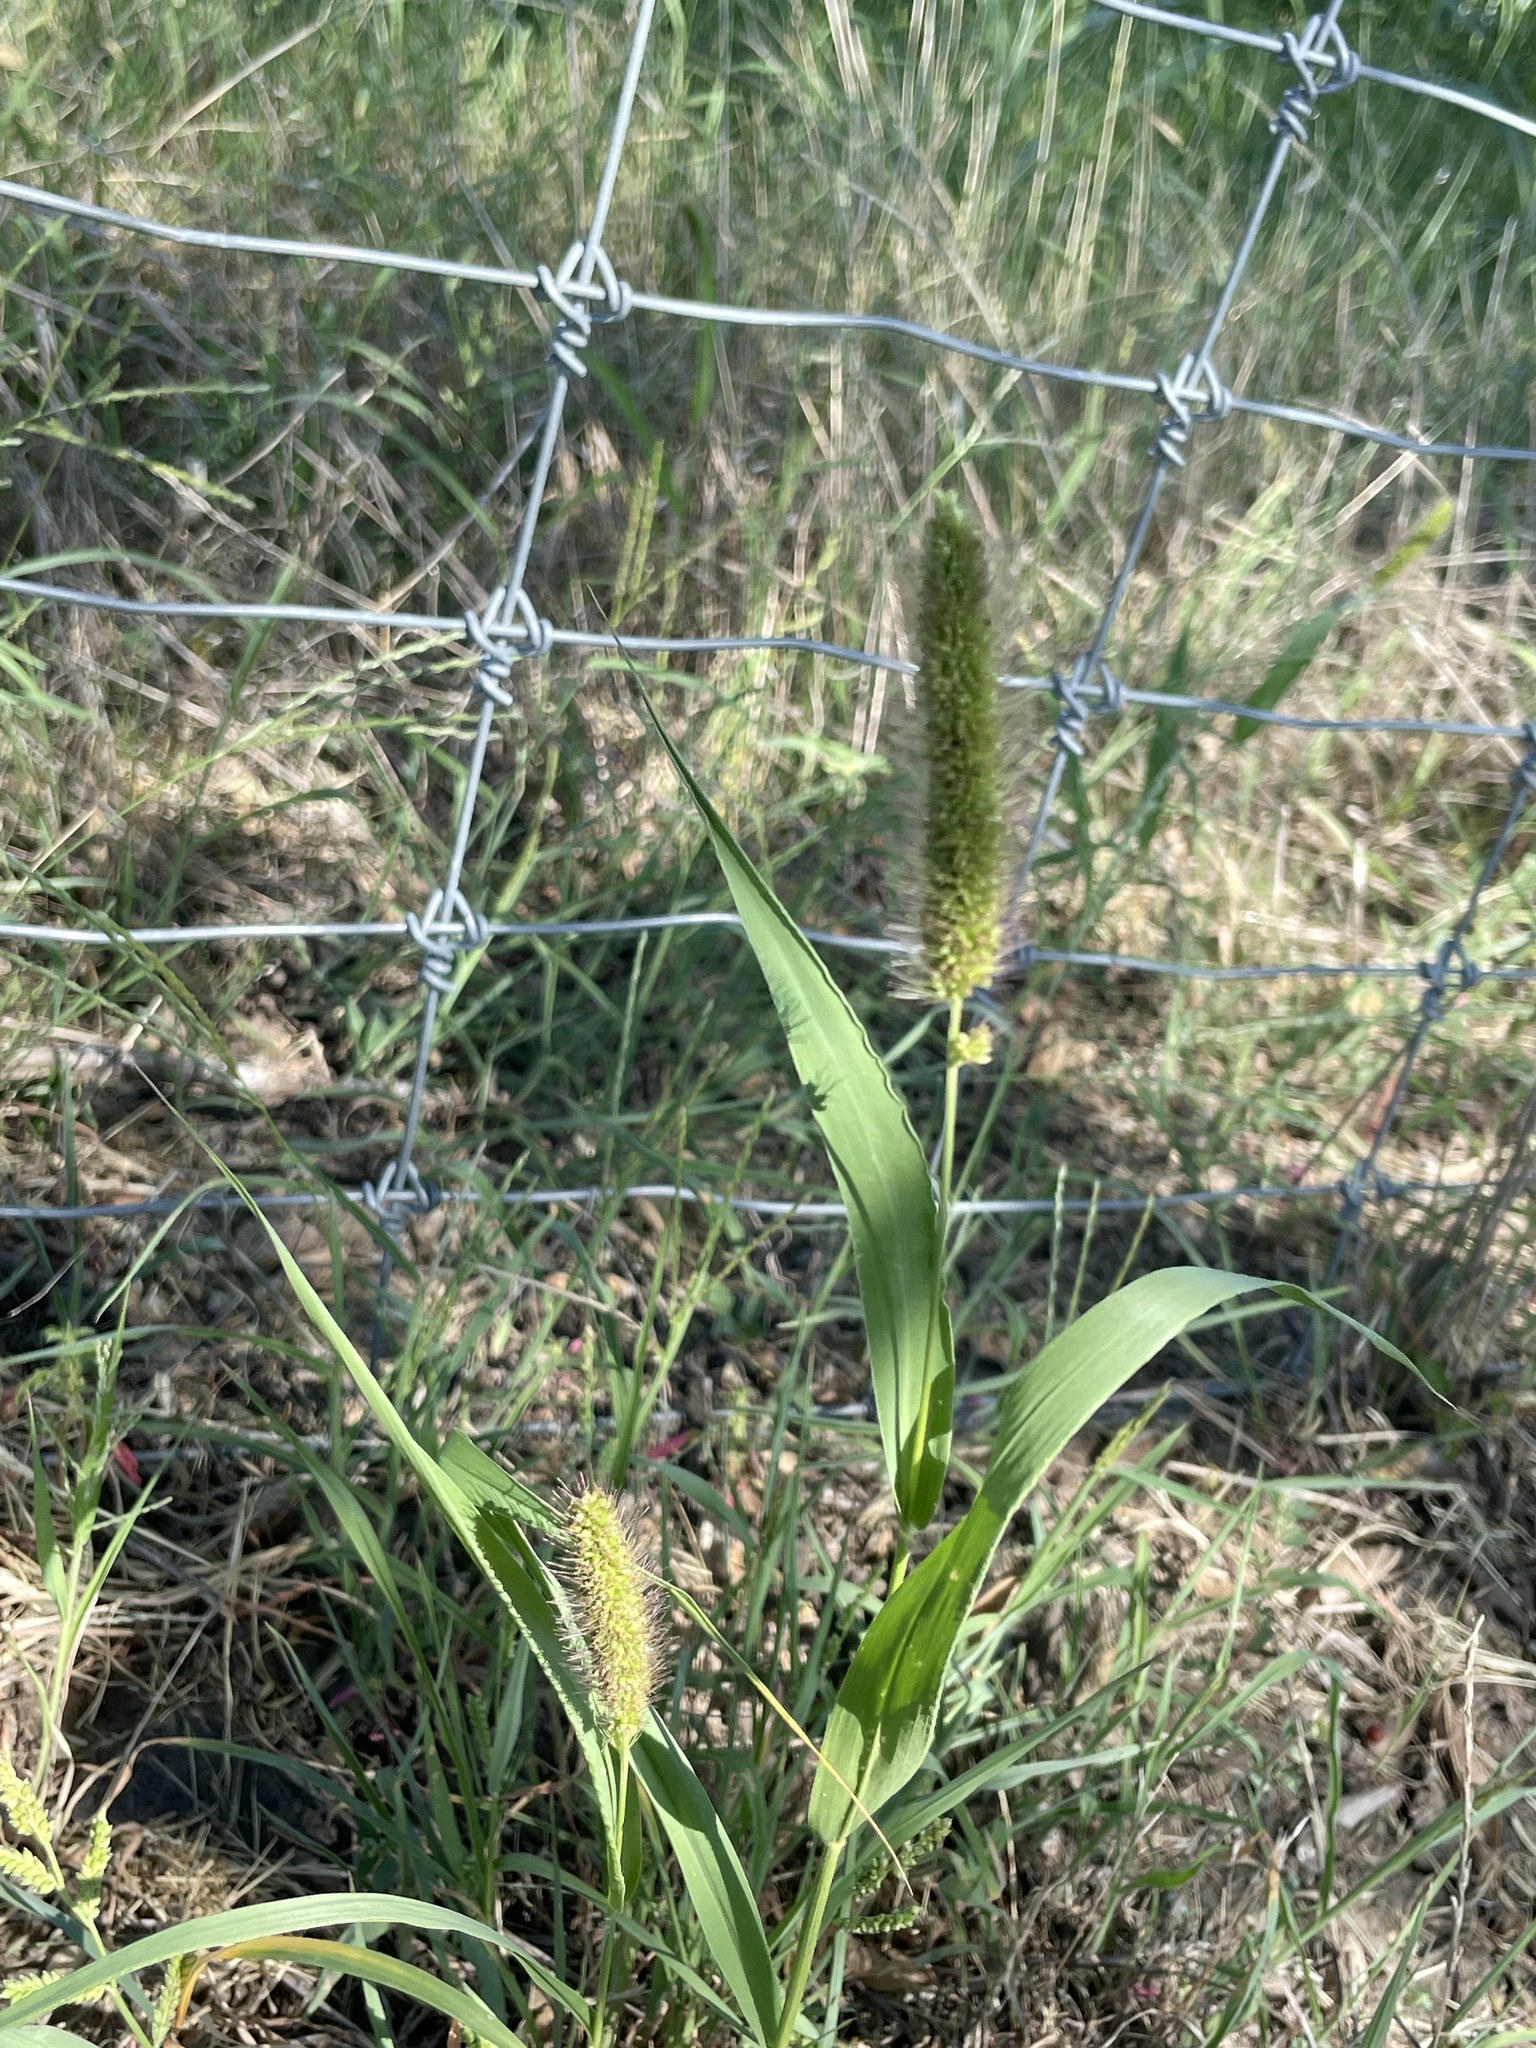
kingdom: Plantae
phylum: Tracheophyta
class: Liliopsida
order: Poales
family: Poaceae
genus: Setaria
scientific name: Setaria viridis
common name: Green bristlegrass
